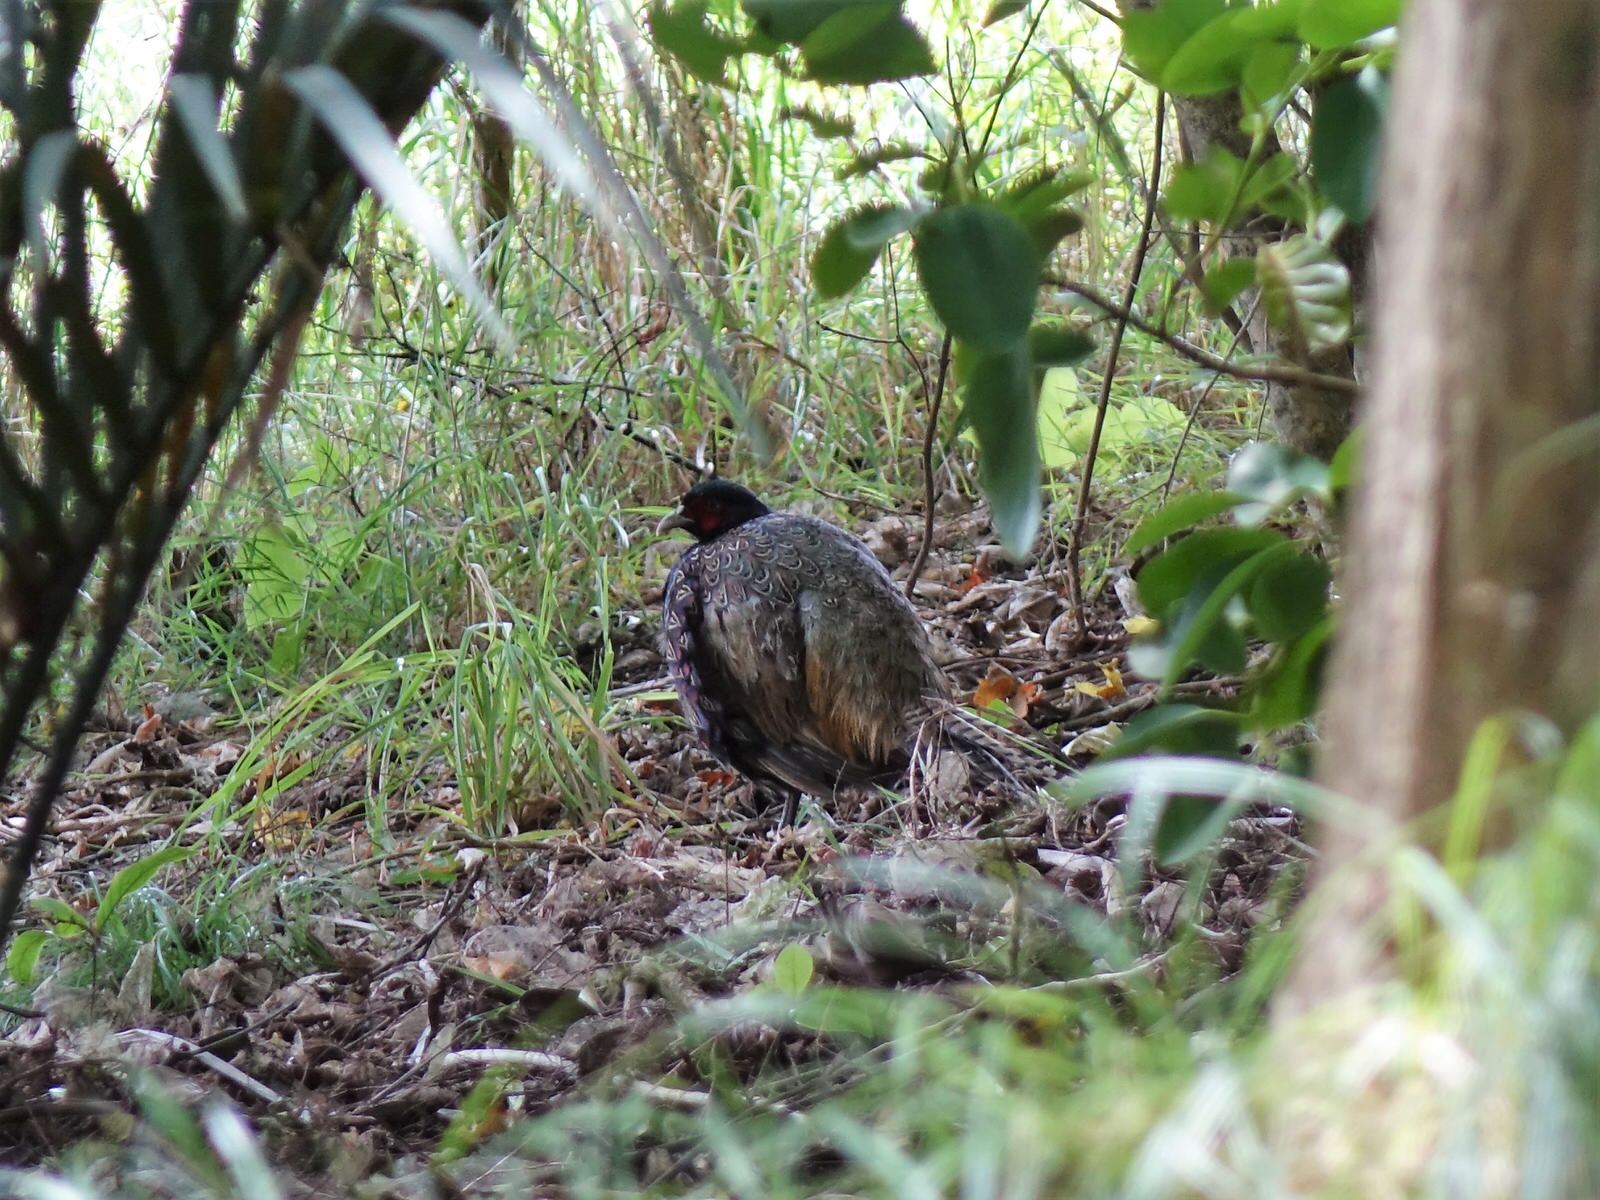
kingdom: Animalia
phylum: Chordata
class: Aves
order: Galliformes
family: Phasianidae
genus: Phasianus
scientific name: Phasianus colchicus
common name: Common pheasant
